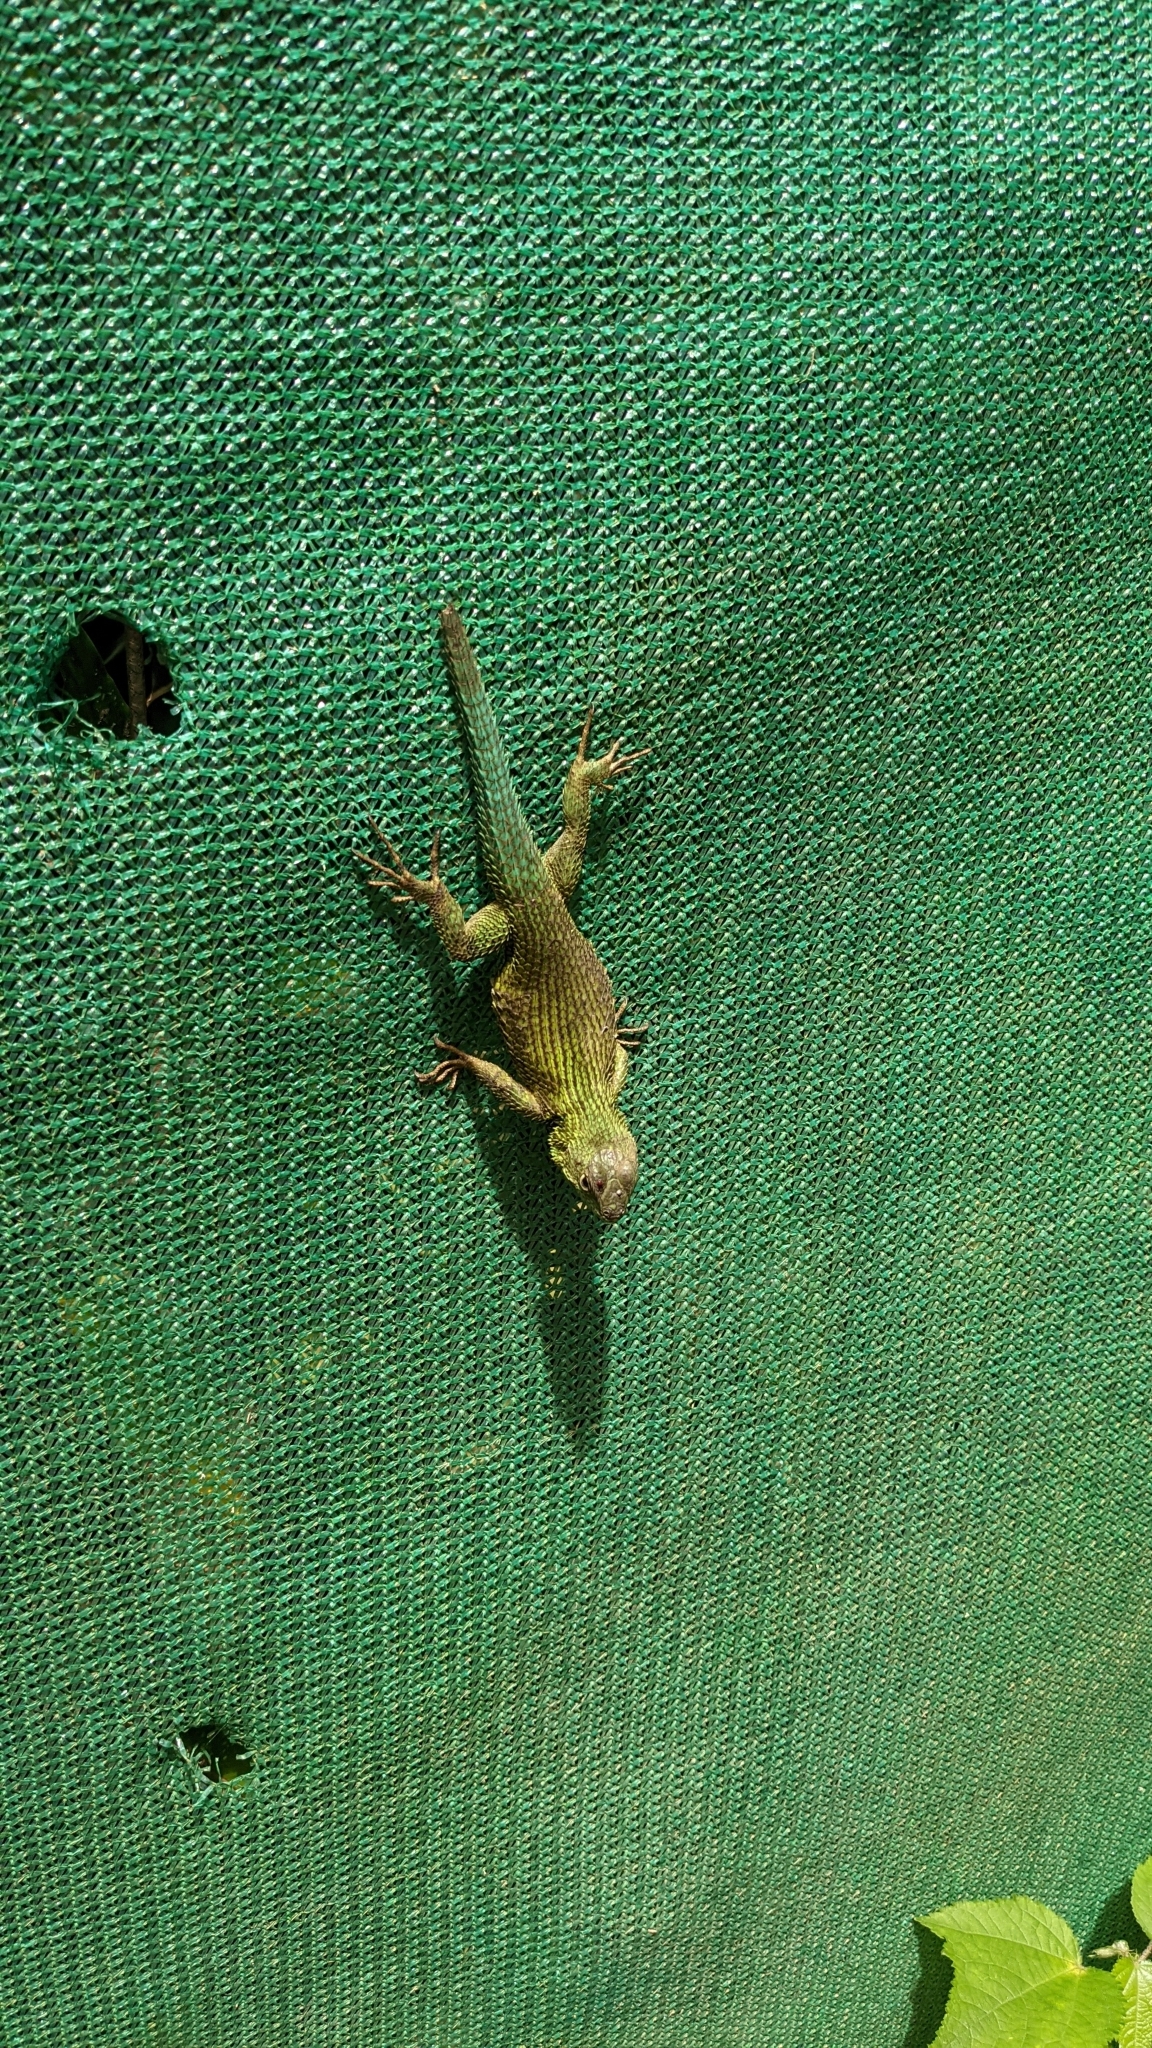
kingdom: Animalia
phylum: Chordata
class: Squamata
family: Phrynosomatidae
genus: Sceloporus
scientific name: Sceloporus malachiticus
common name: Green spiny lizard
